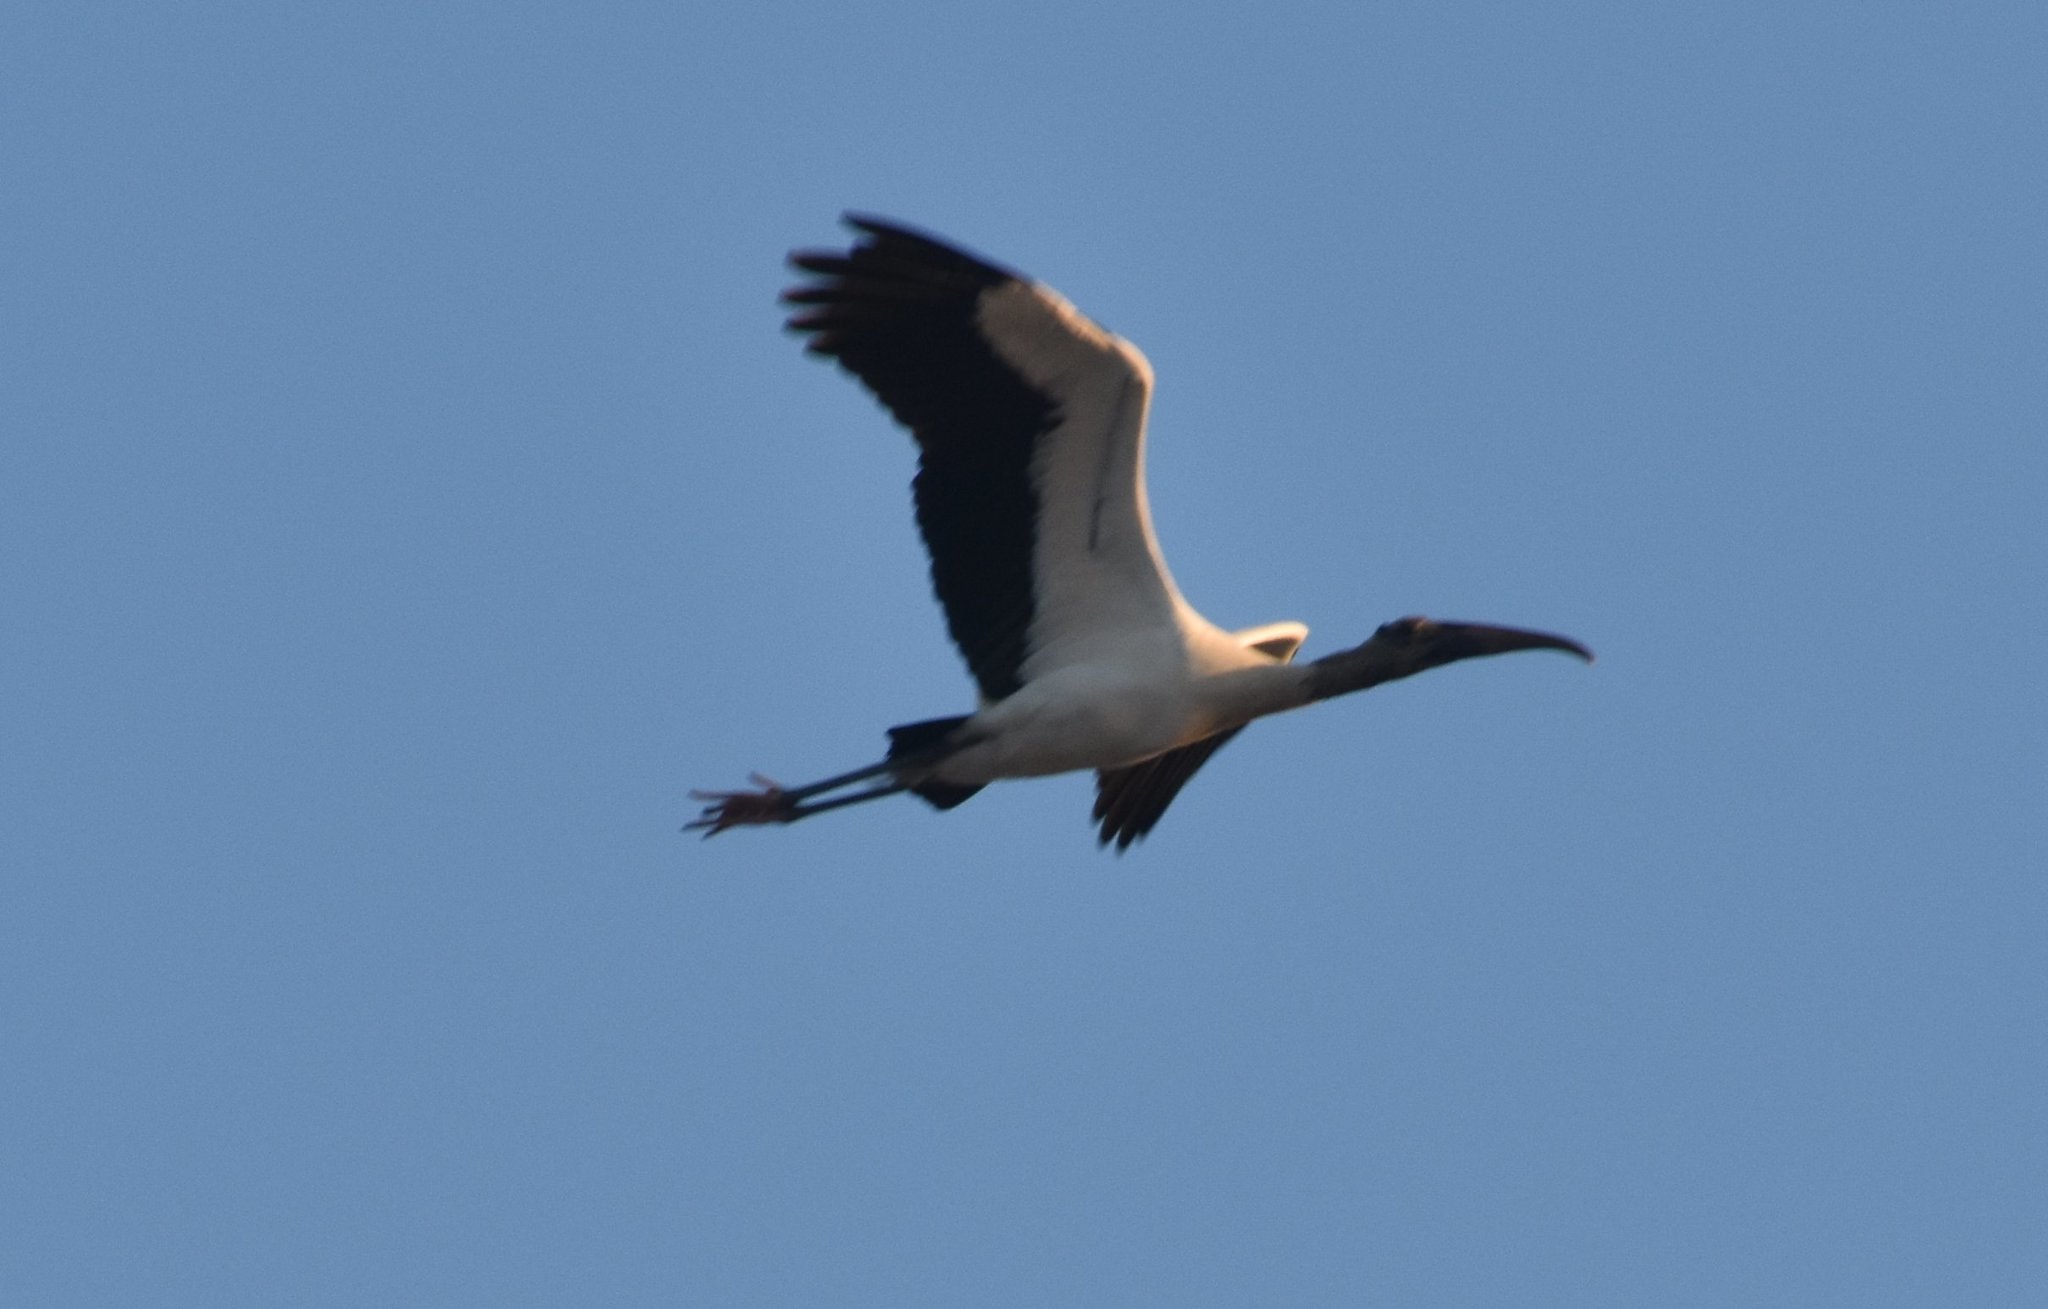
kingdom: Animalia
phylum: Chordata
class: Aves
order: Ciconiiformes
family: Ciconiidae
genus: Mycteria
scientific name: Mycteria americana
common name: Wood stork
